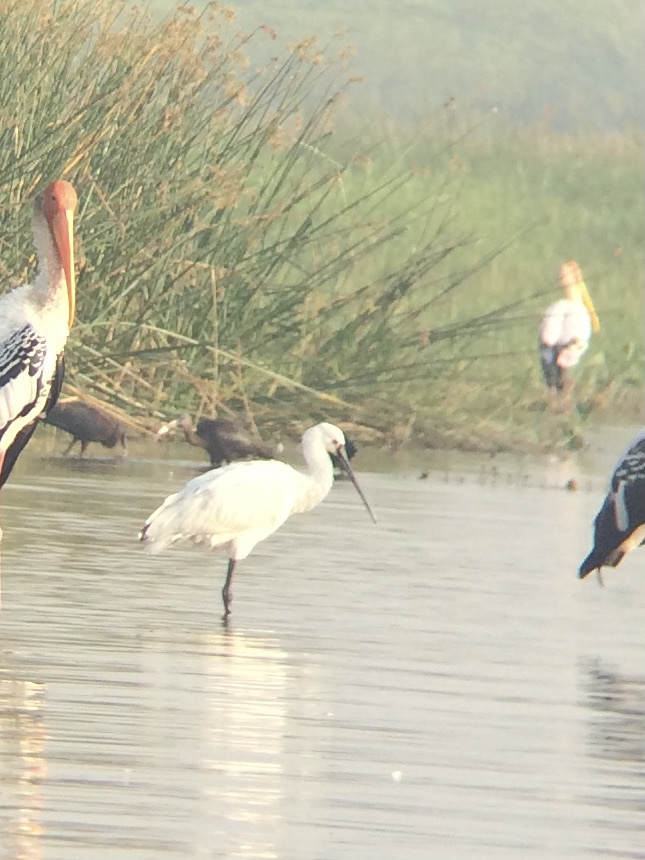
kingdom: Animalia
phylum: Chordata
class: Aves
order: Pelecaniformes
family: Threskiornithidae
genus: Platalea
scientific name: Platalea leucorodia
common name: Eurasian spoonbill
